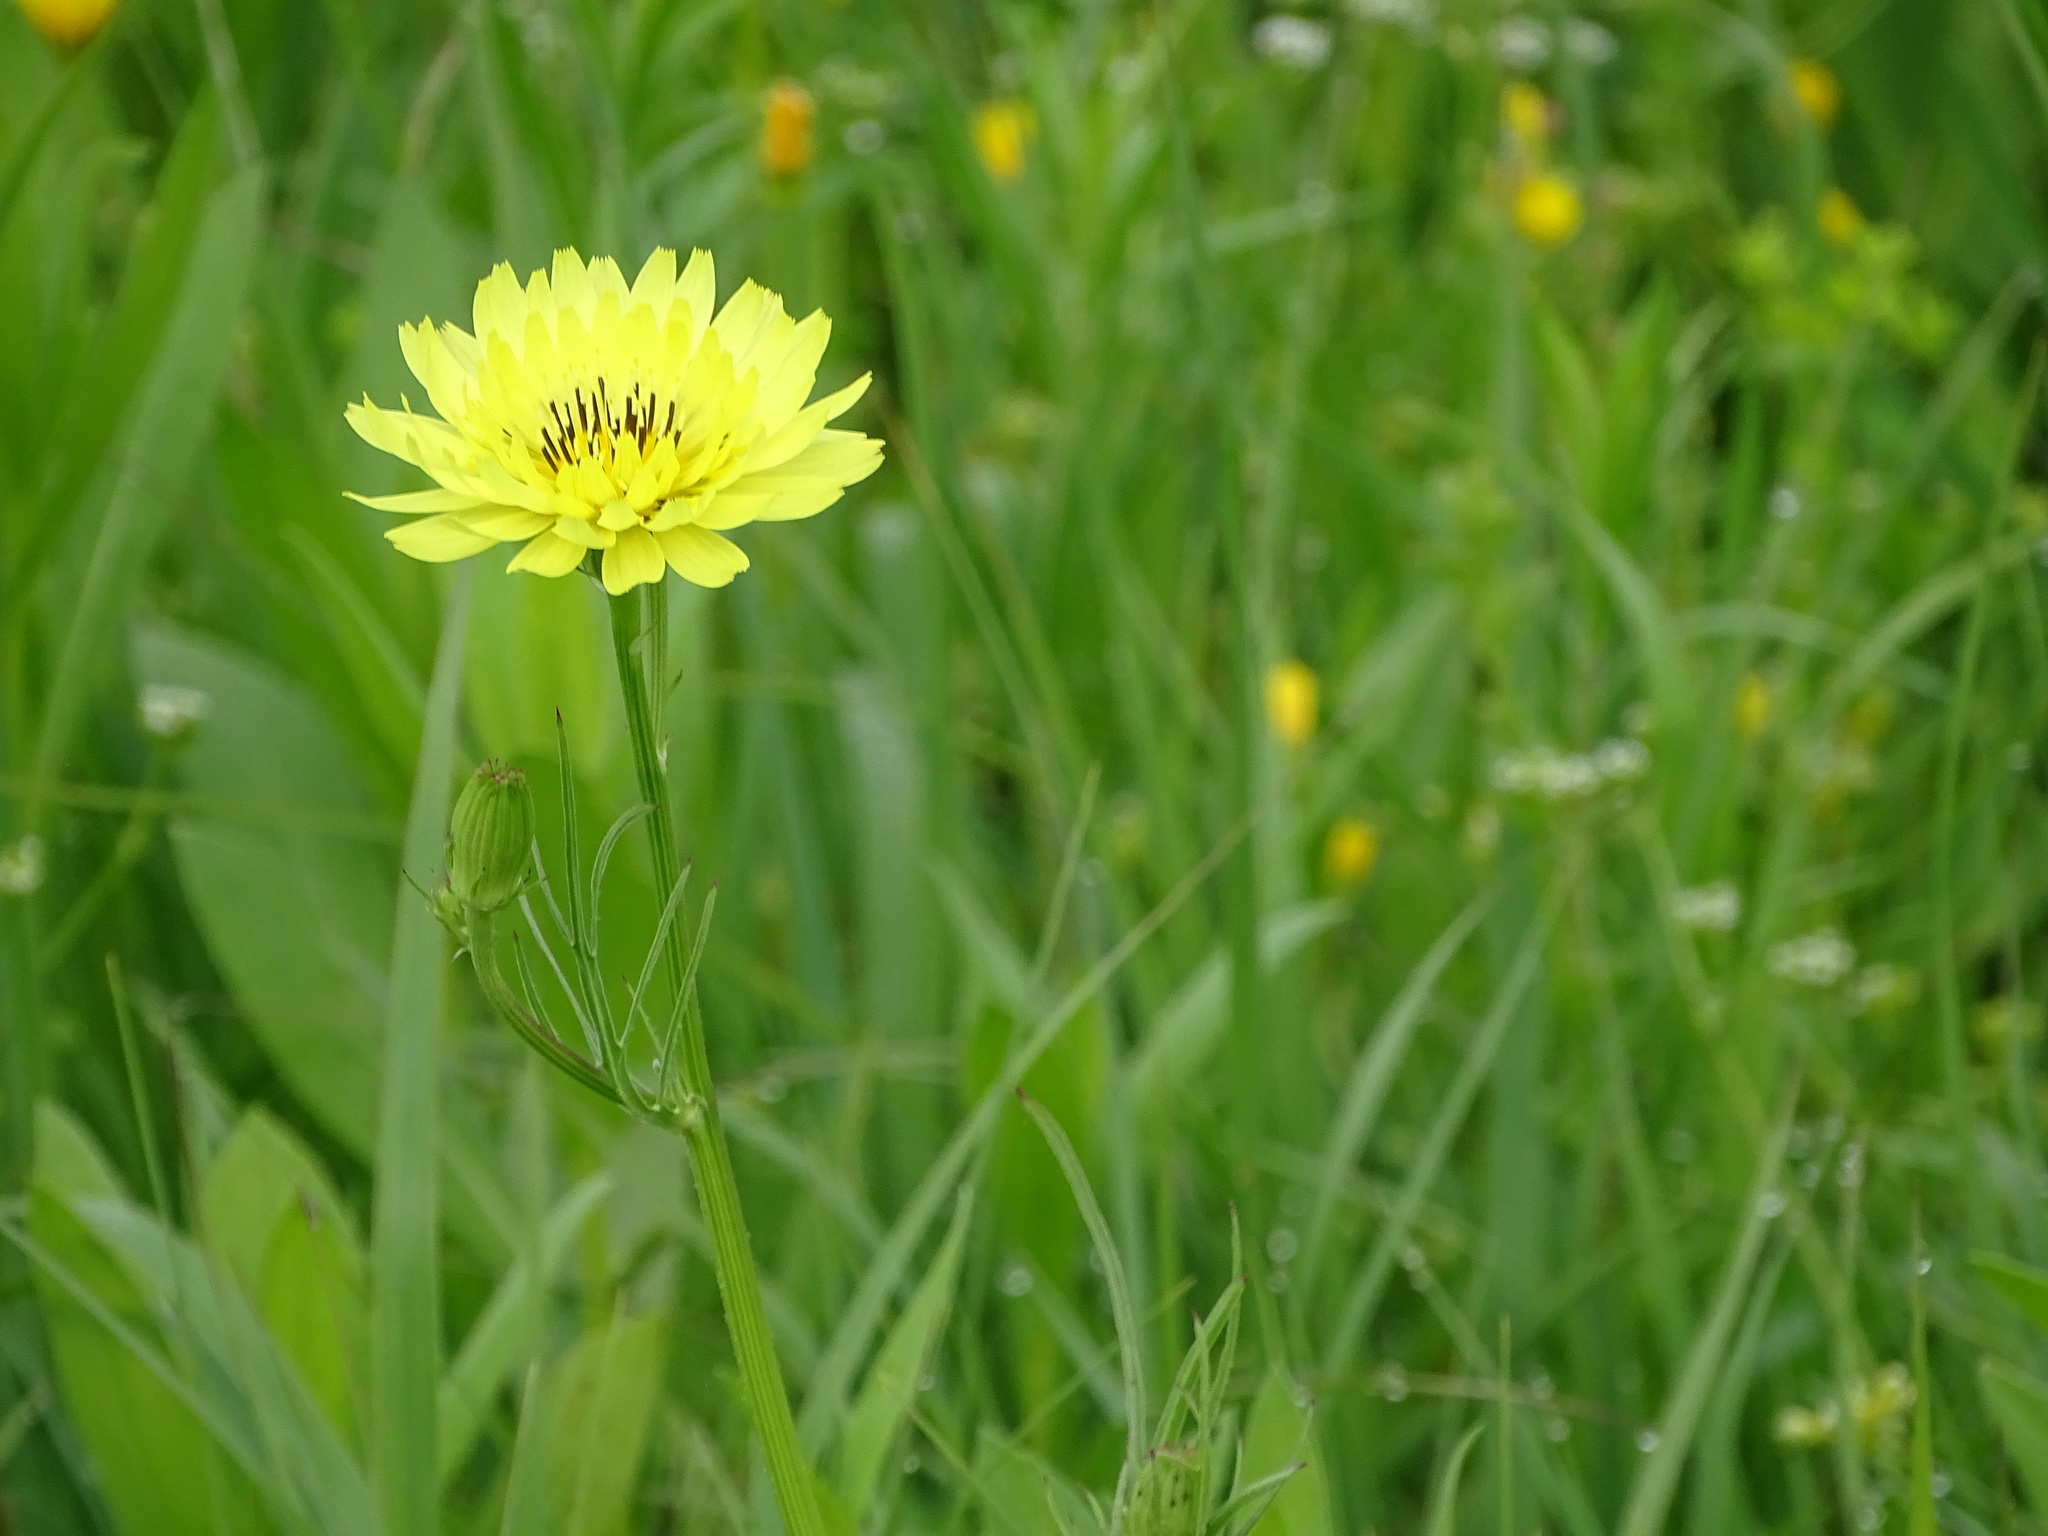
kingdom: Plantae
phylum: Tracheophyta
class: Magnoliopsida
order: Asterales
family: Asteraceae
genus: Pyrrhopappus
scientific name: Pyrrhopappus pauciflorus
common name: Texas false dandelion
